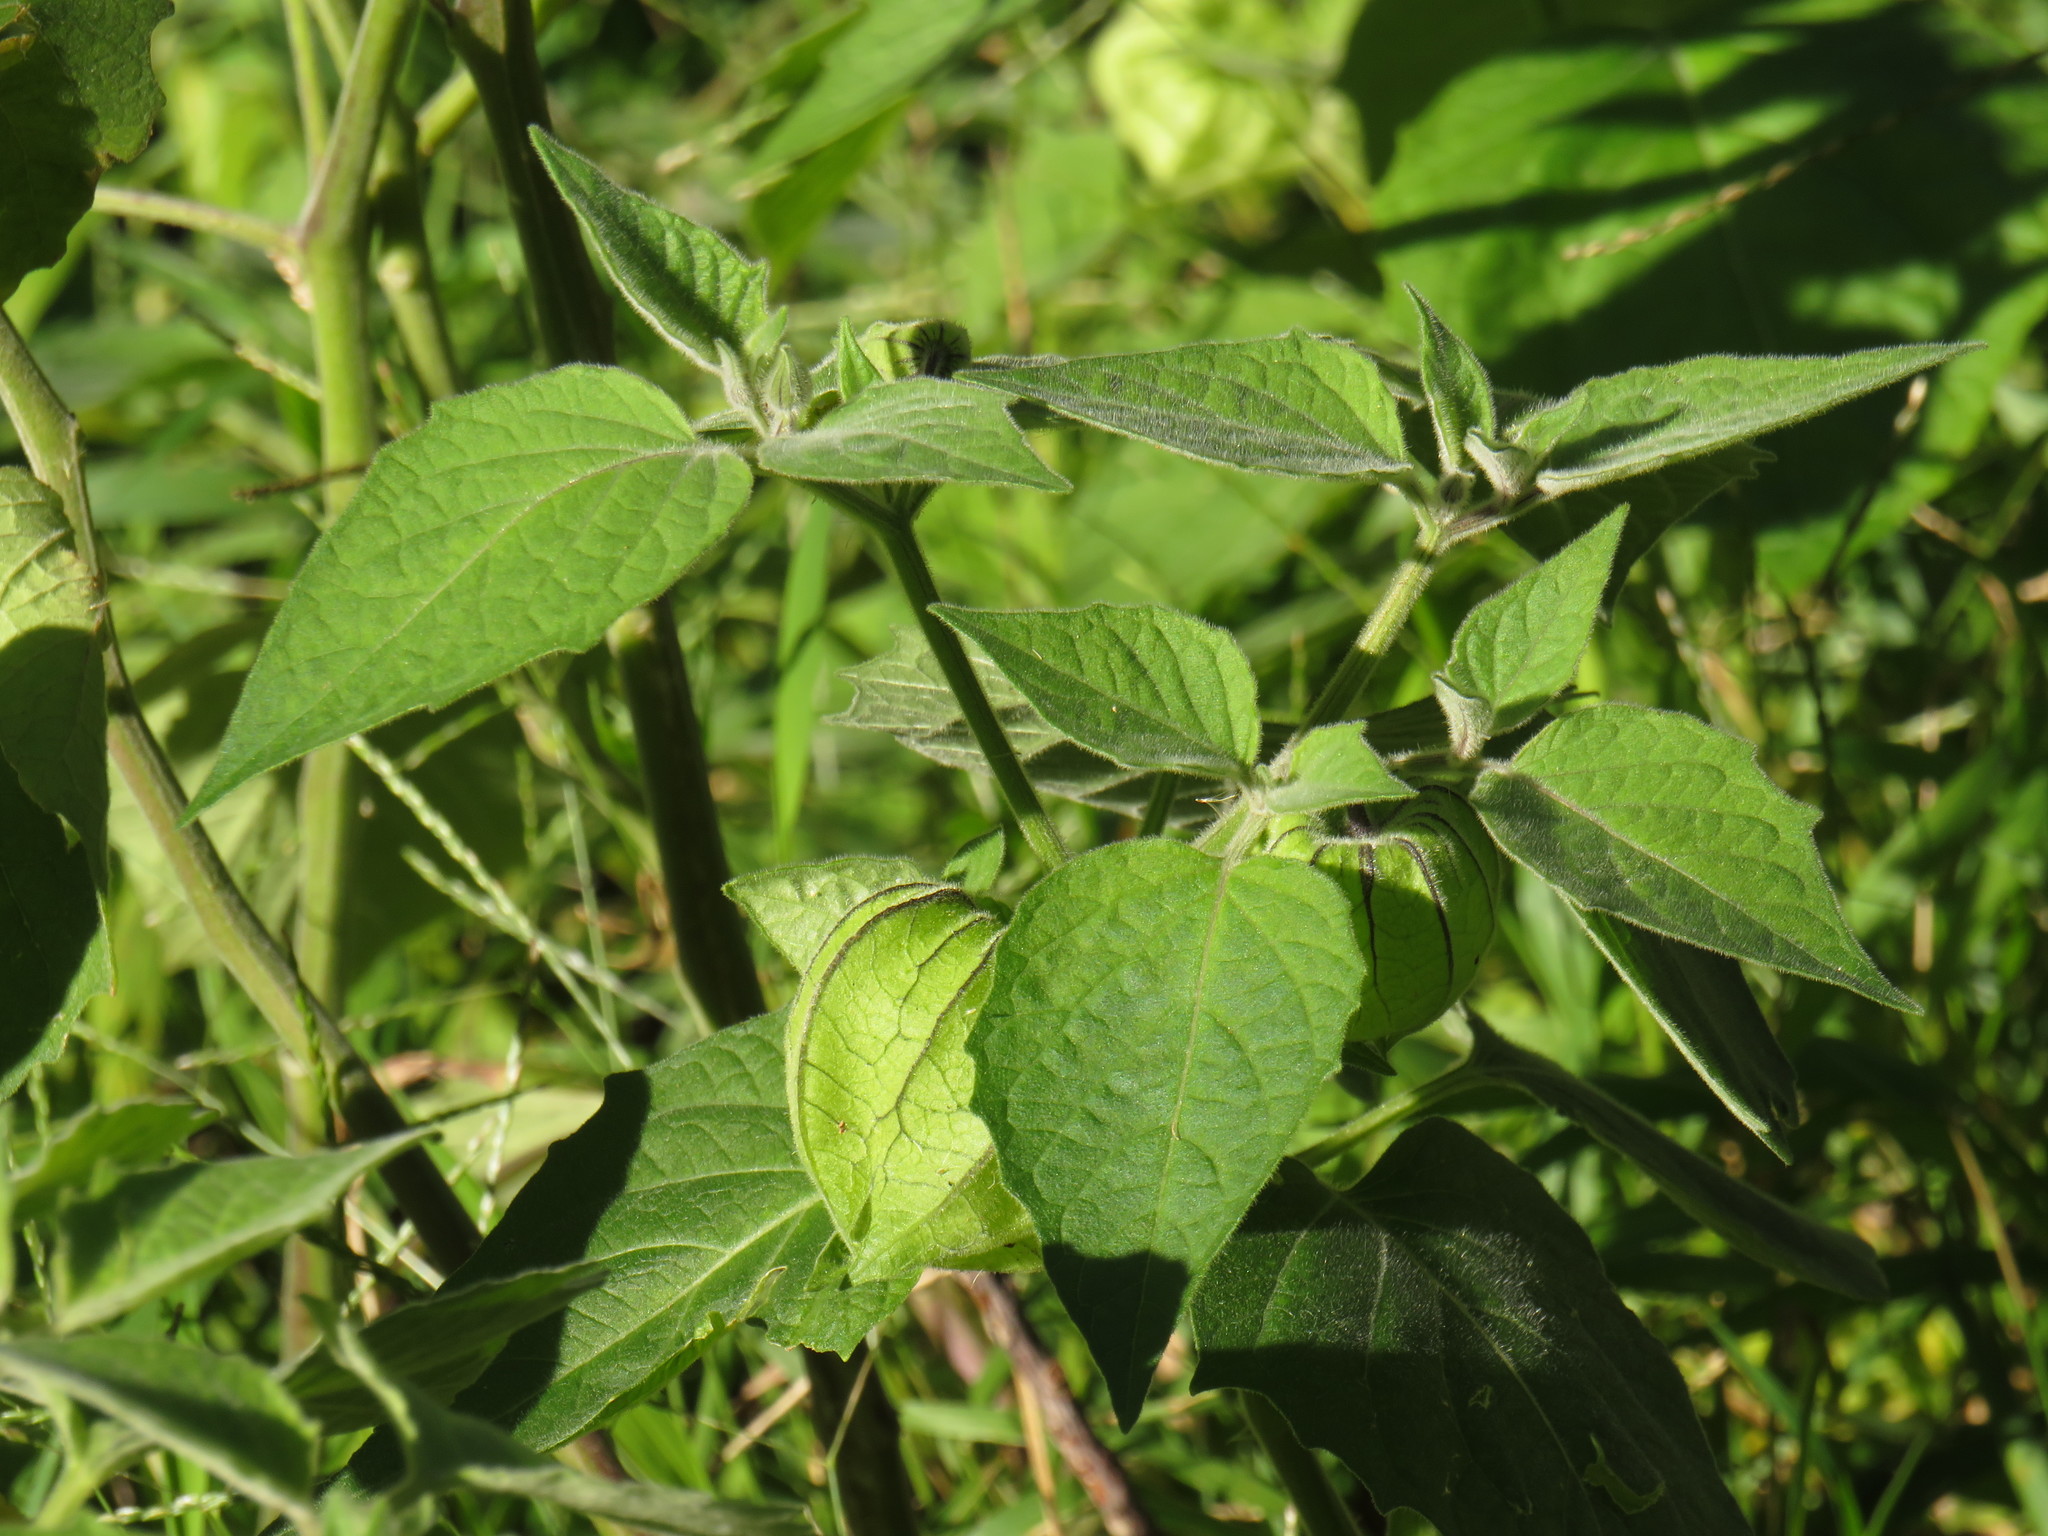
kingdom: Plantae
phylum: Tracheophyta
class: Magnoliopsida
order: Solanales
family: Solanaceae
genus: Physalis
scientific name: Physalis peruviana
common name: Cape-gooseberry
